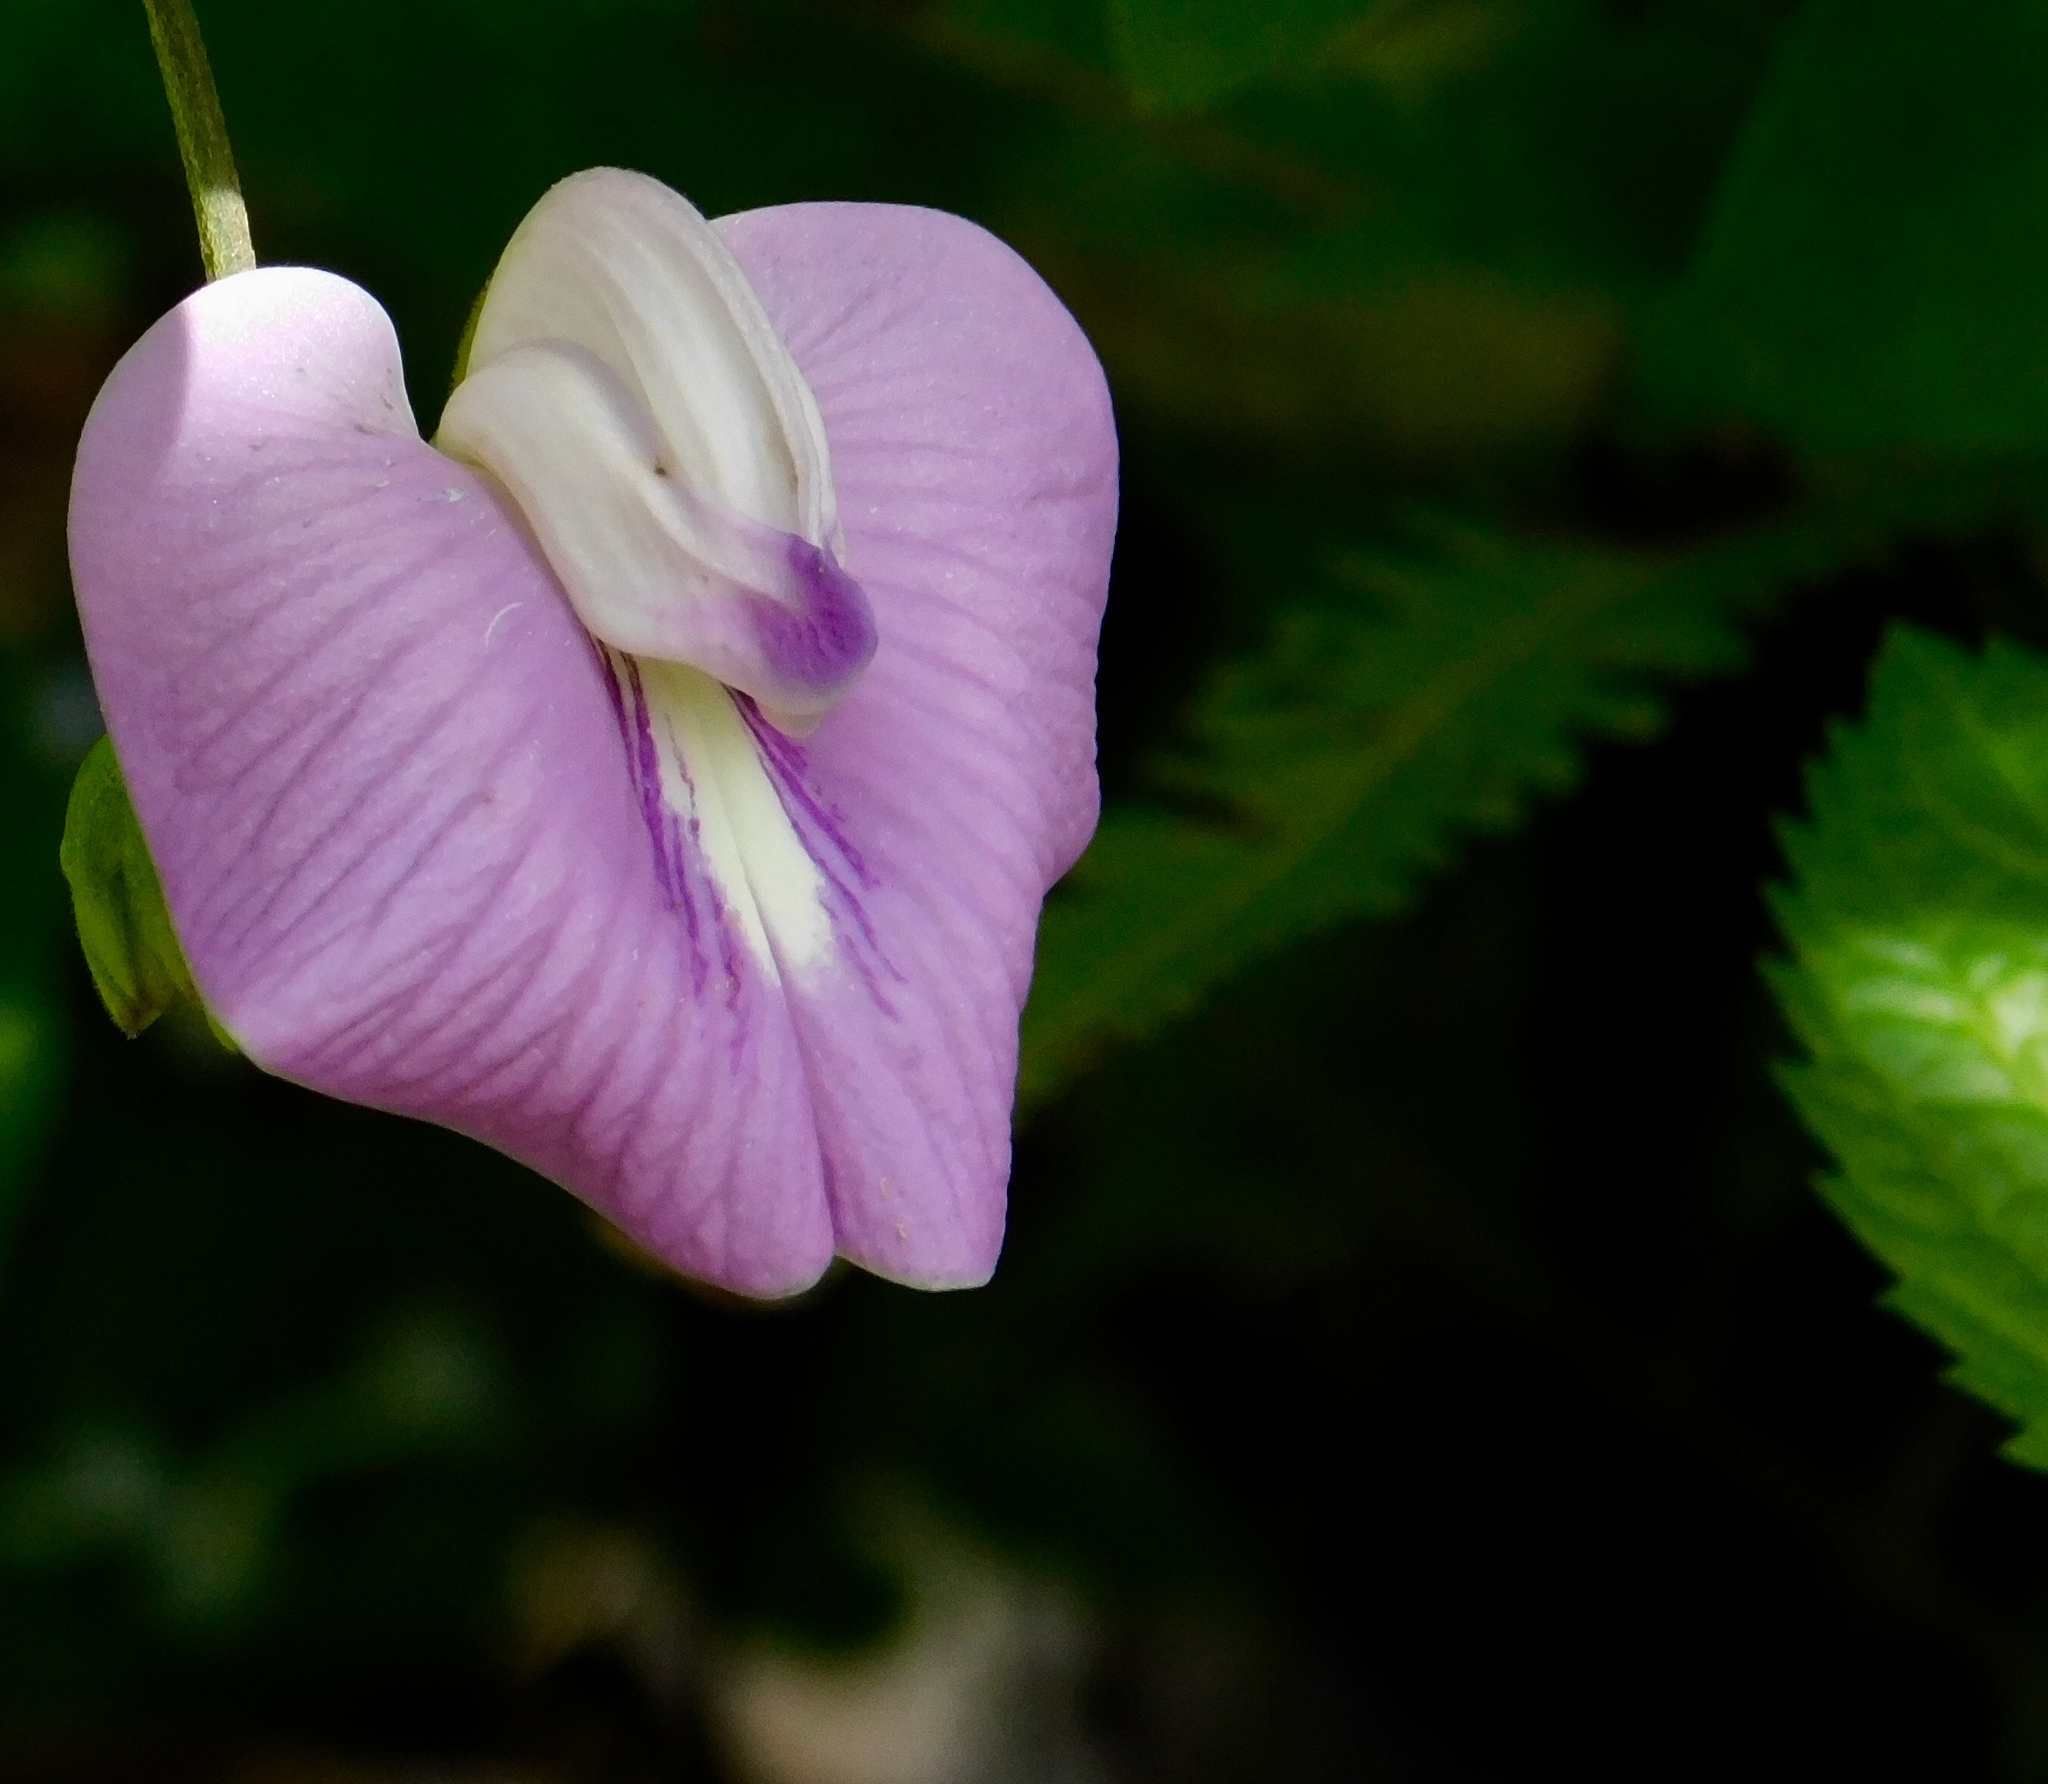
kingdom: Plantae
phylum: Tracheophyta
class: Magnoliopsida
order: Fabales
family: Fabaceae
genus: Centrosema
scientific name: Centrosema pubescens
